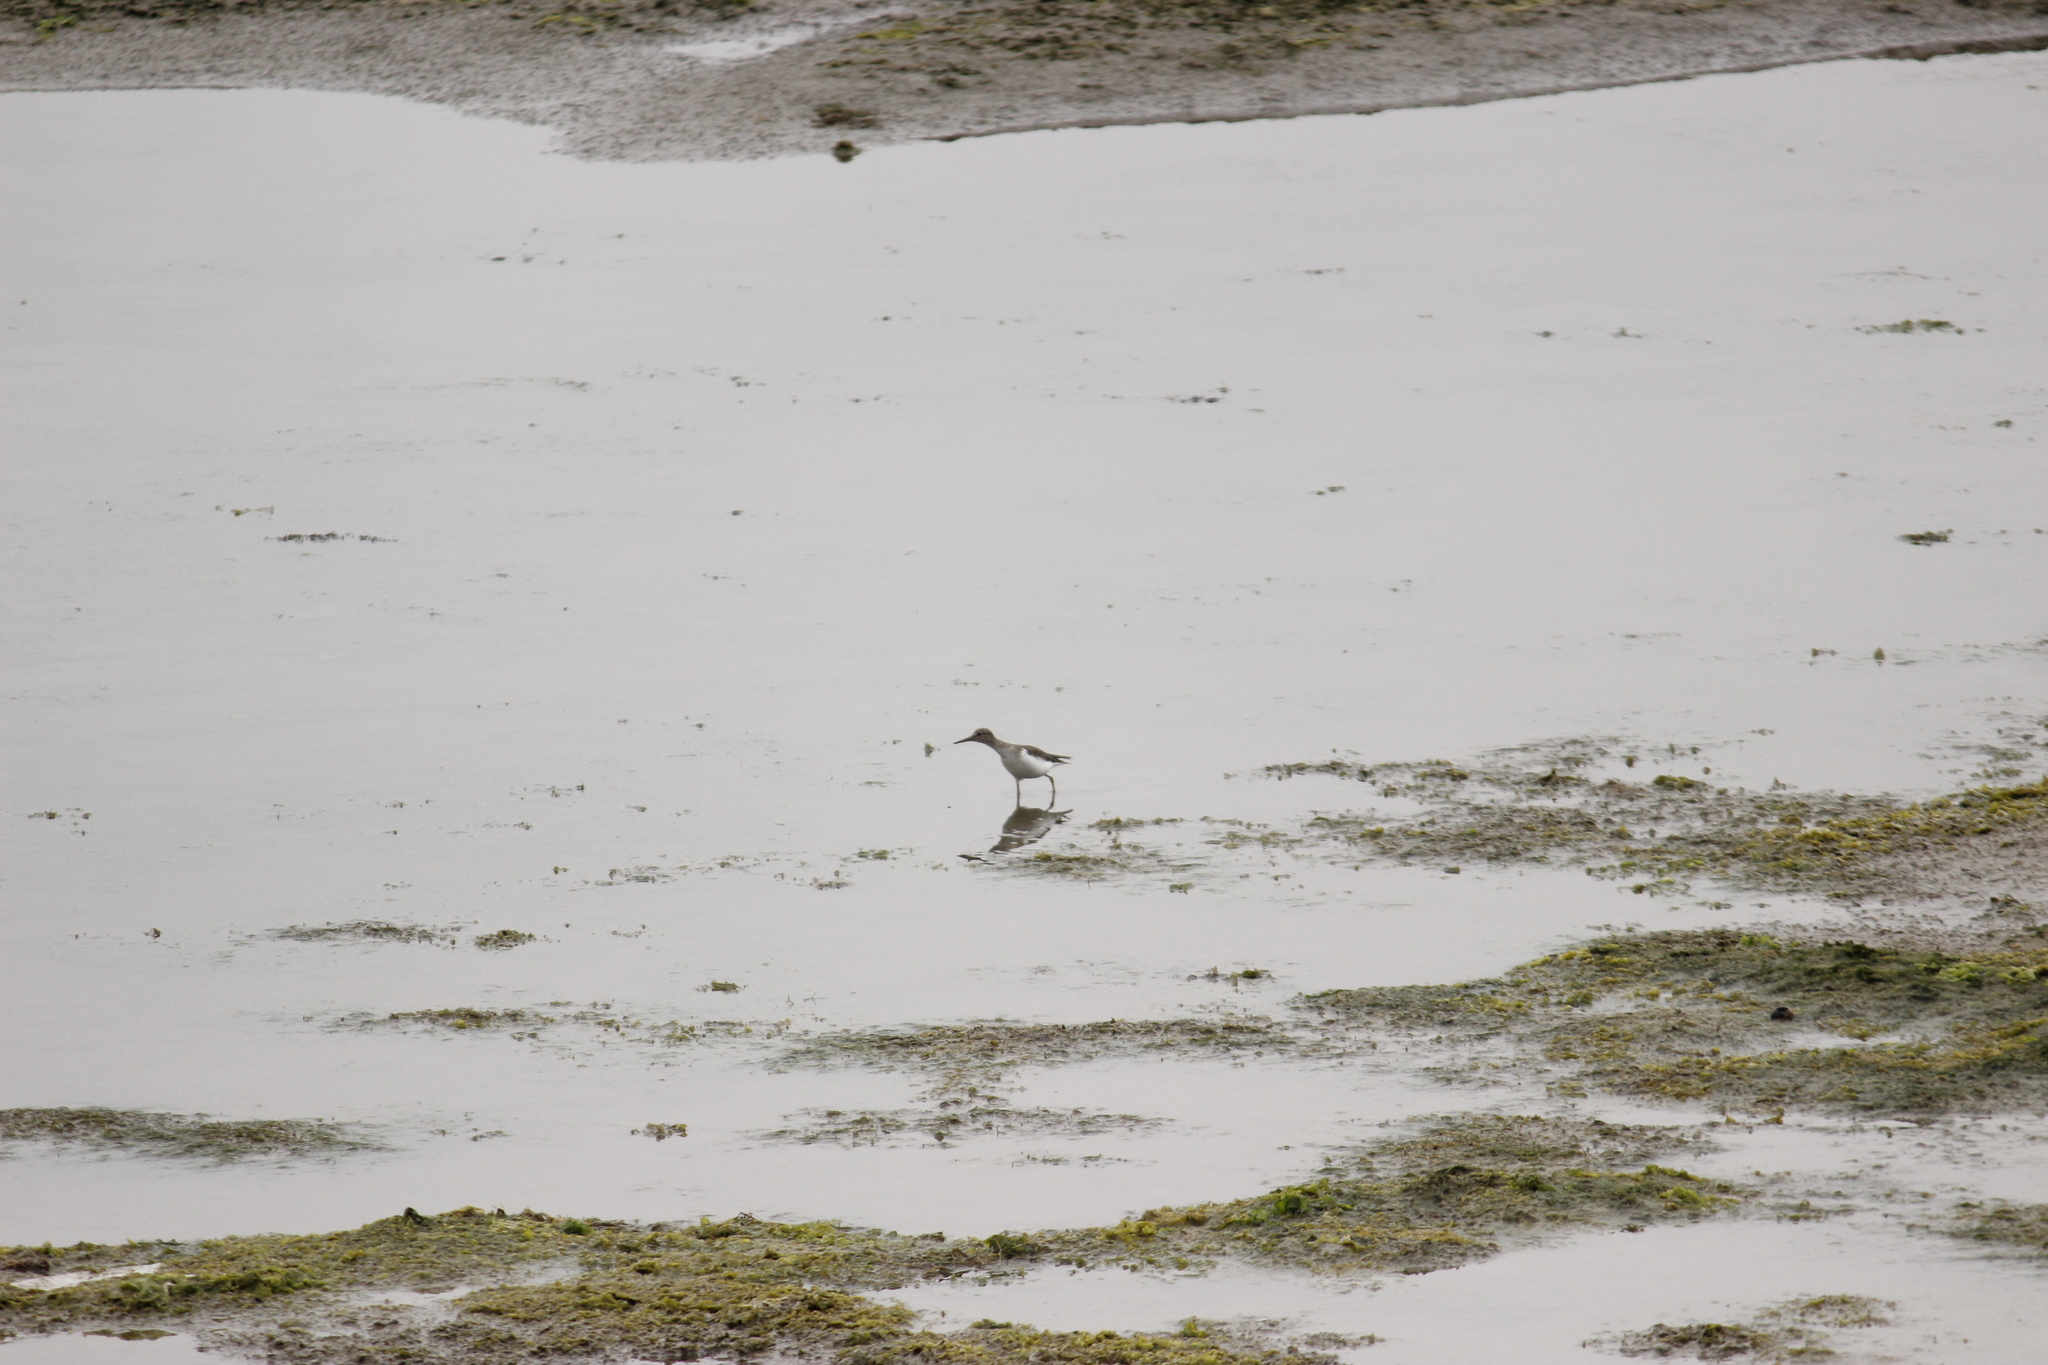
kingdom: Animalia
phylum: Chordata
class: Aves
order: Charadriiformes
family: Scolopacidae
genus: Actitis
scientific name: Actitis macularius
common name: Spotted sandpiper
